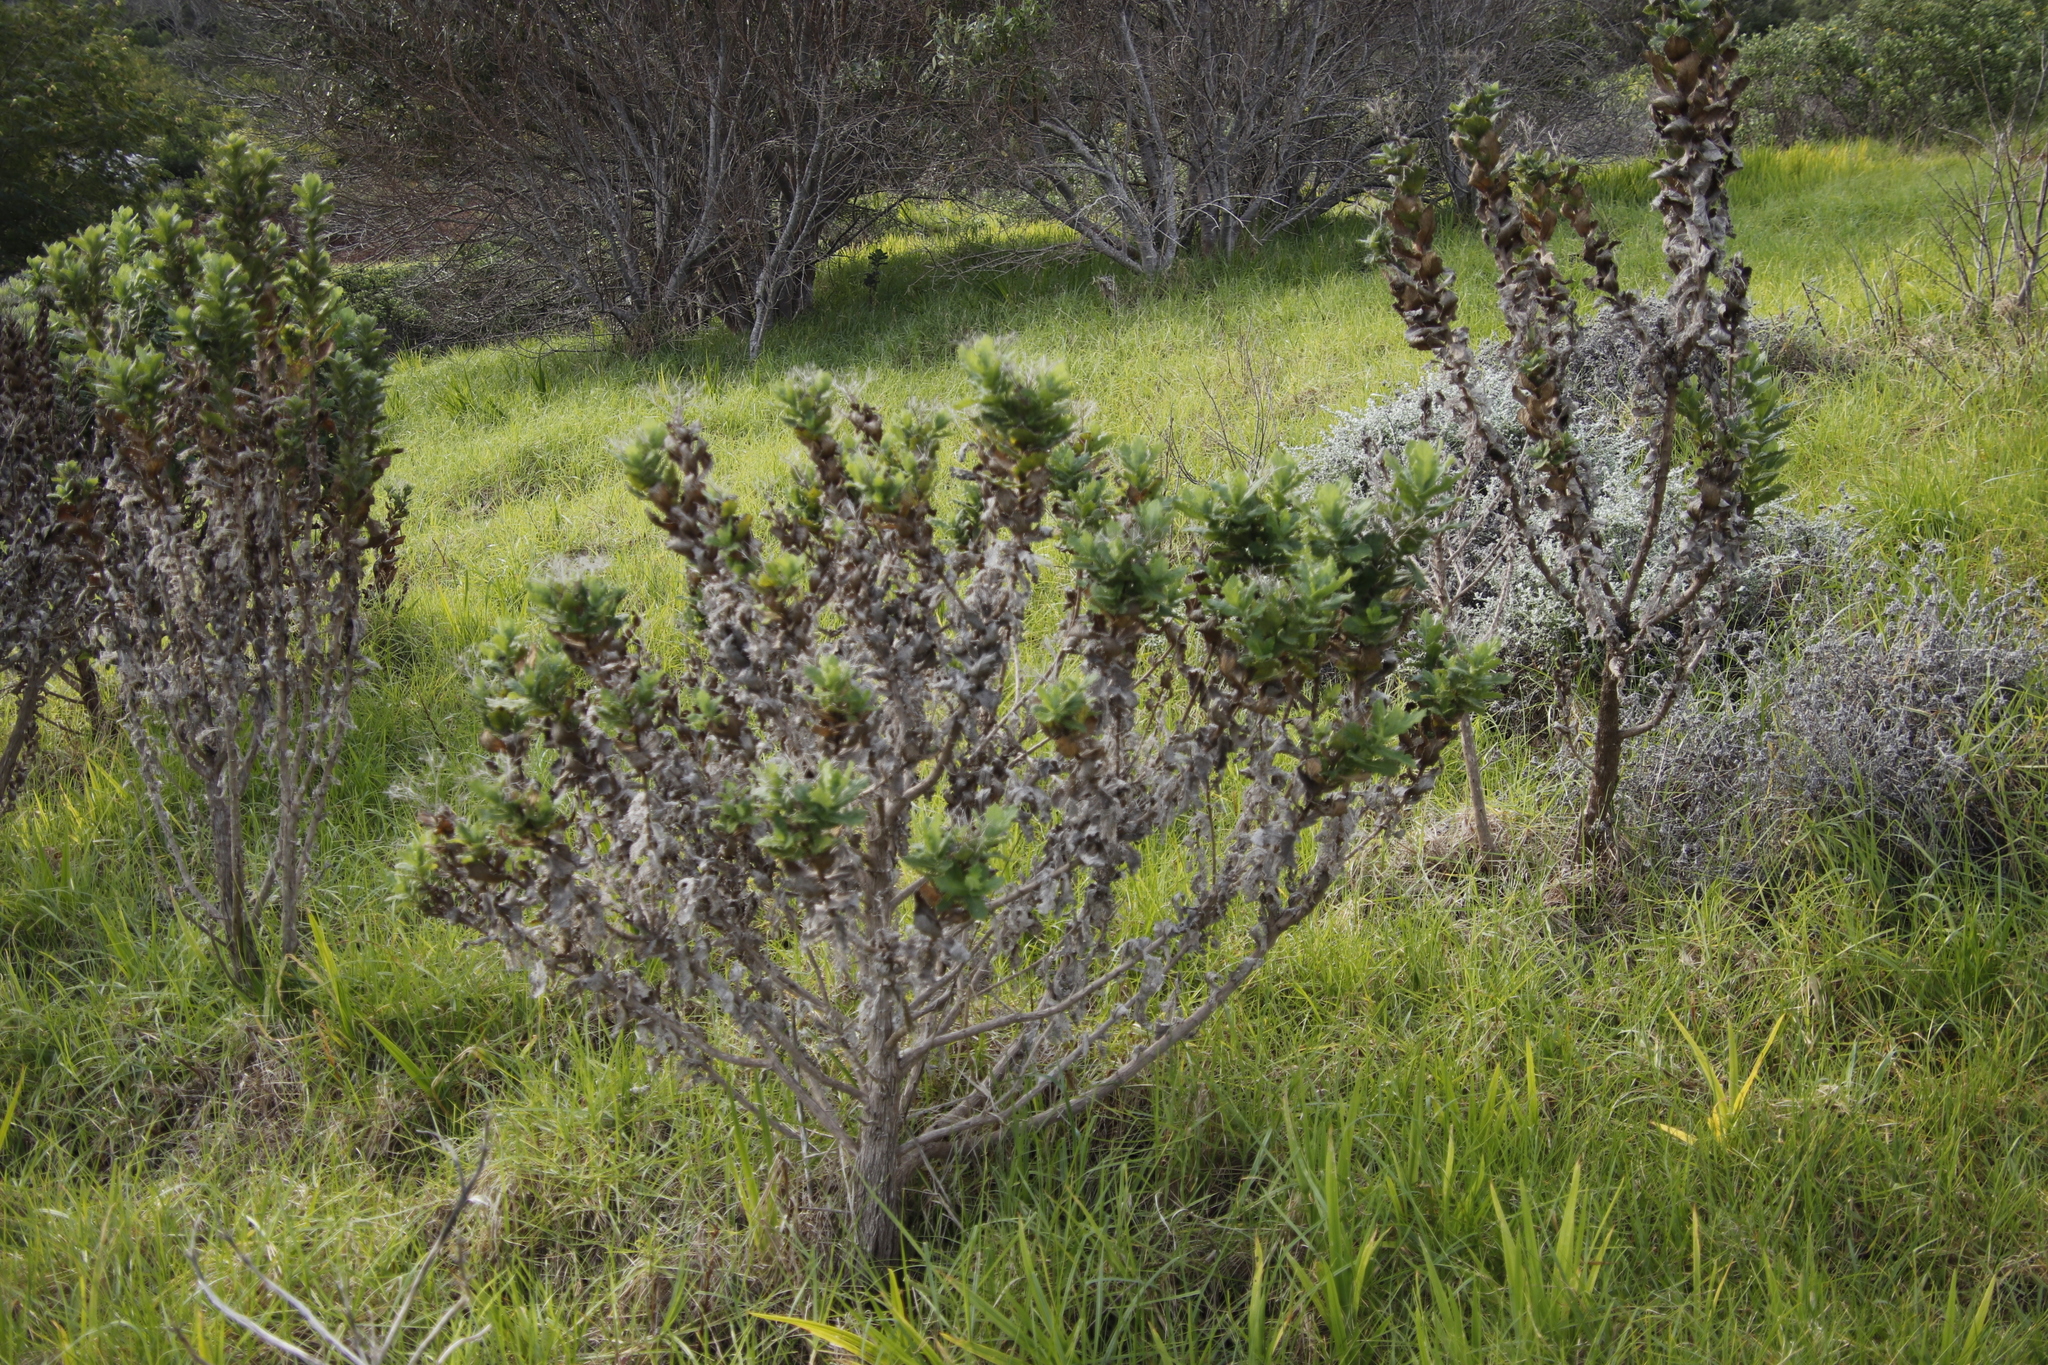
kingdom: Plantae
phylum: Tracheophyta
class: Magnoliopsida
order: Asterales
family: Asteraceae
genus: Senecio
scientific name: Senecio rigidus
